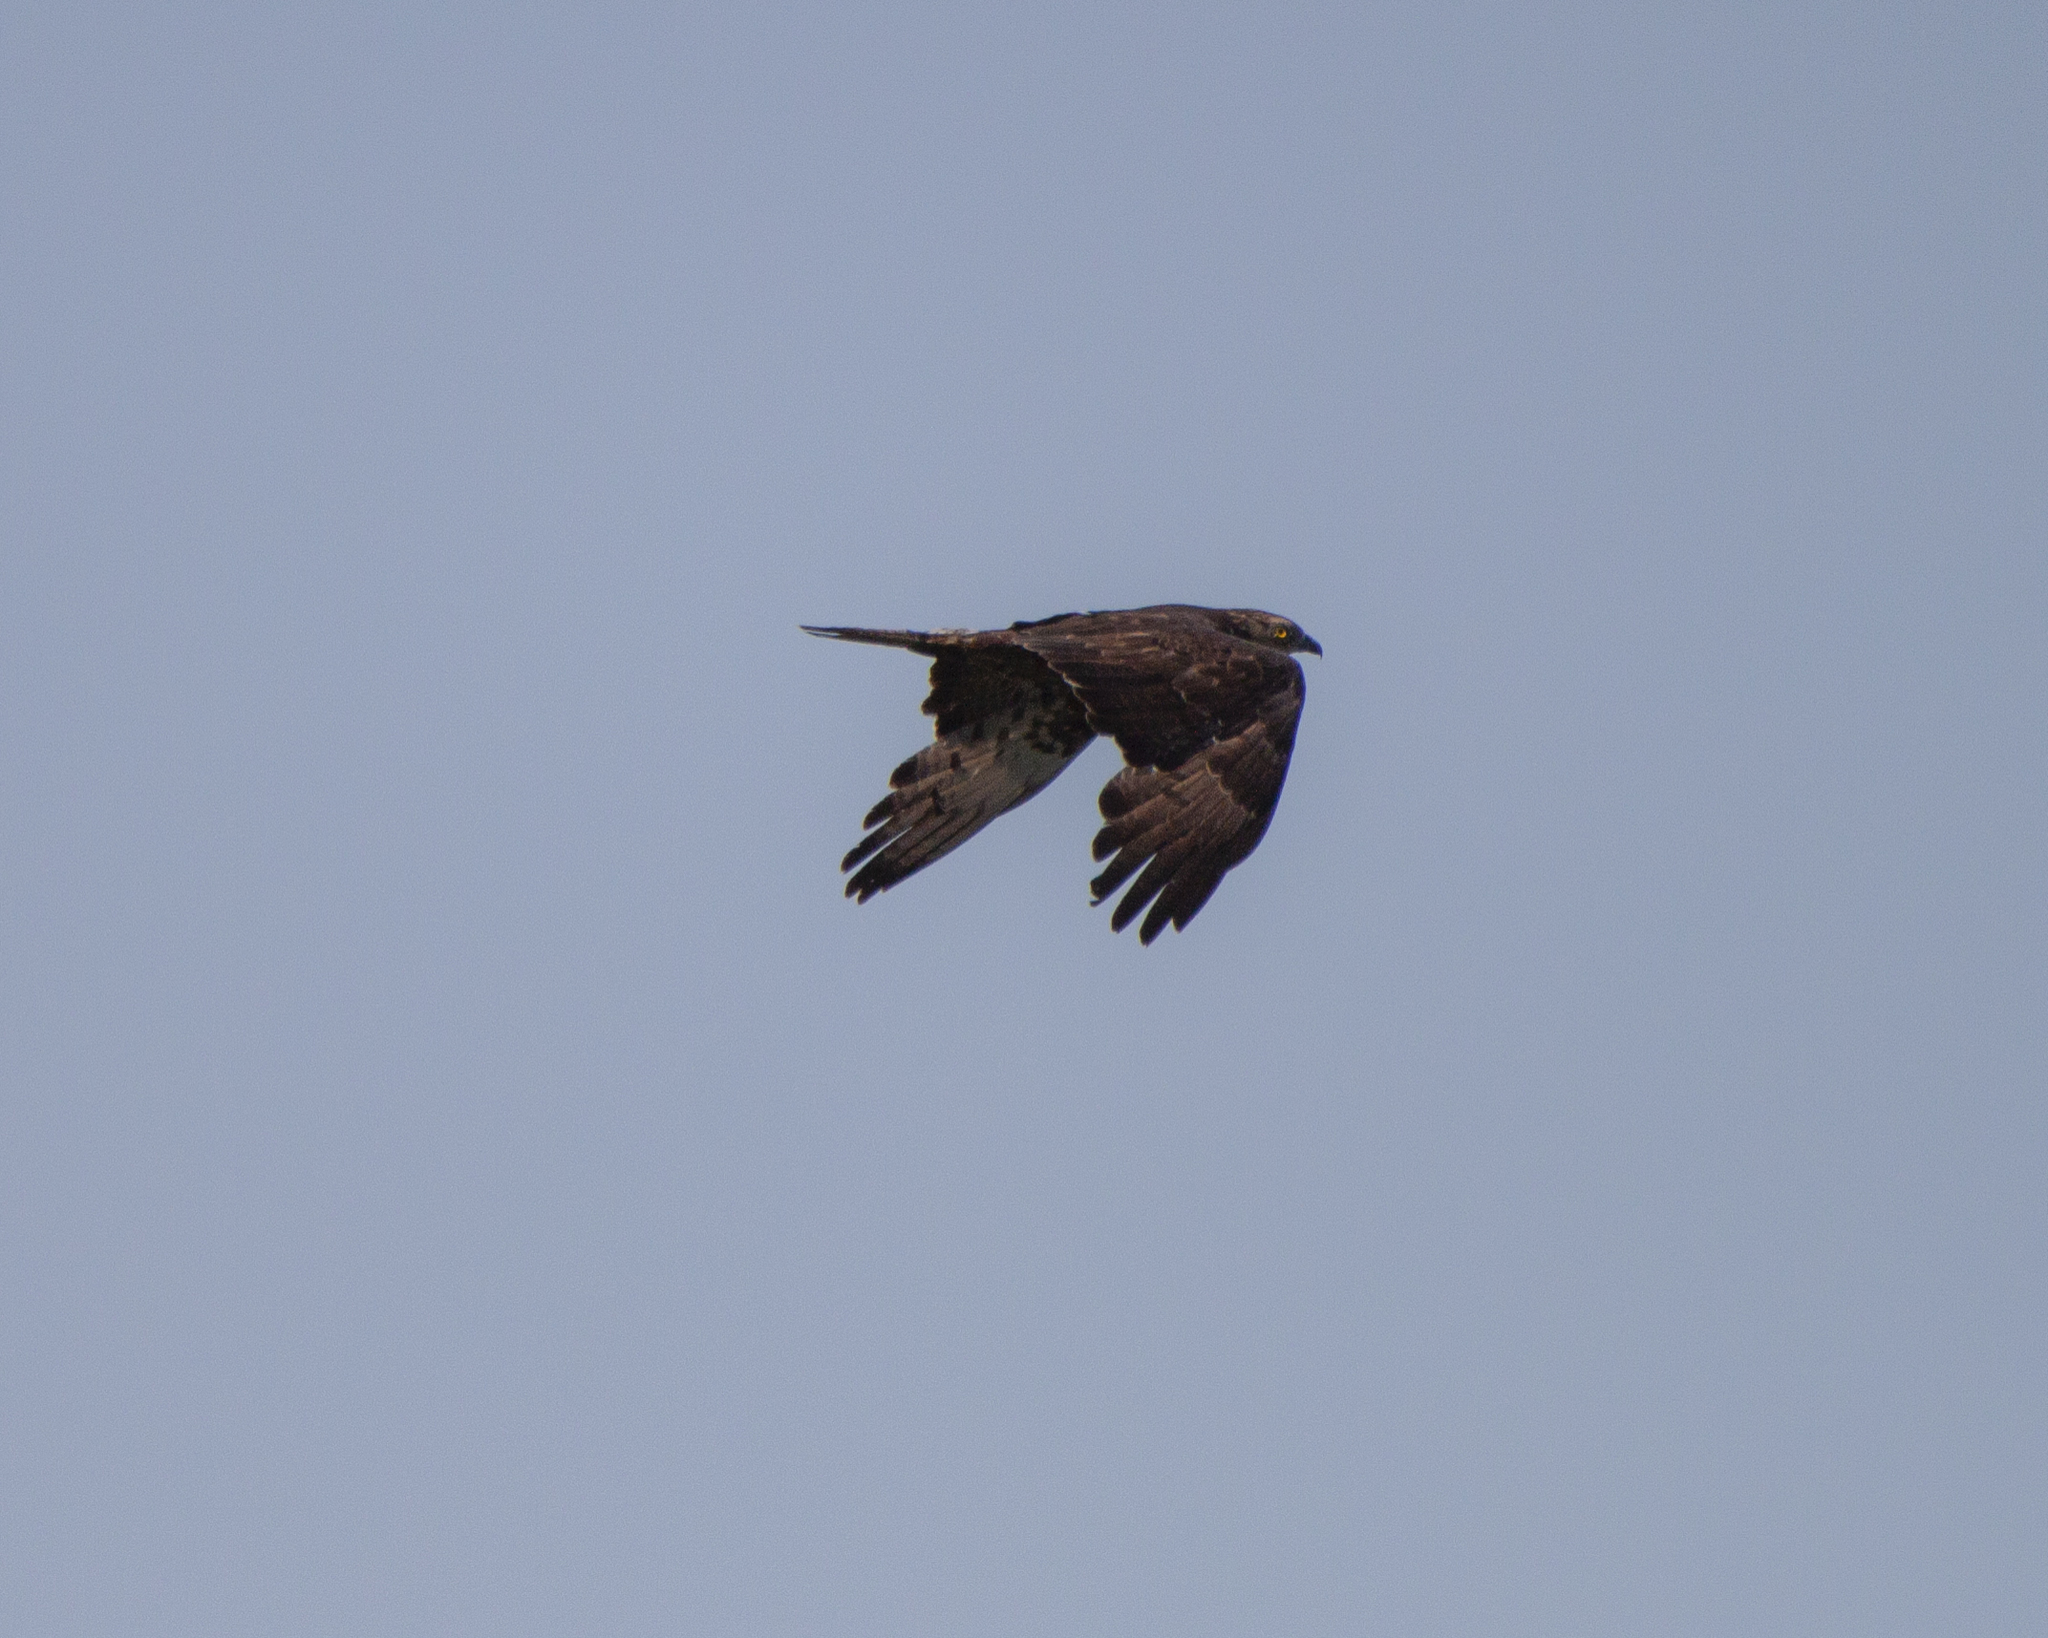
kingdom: Animalia
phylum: Chordata
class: Aves
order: Accipitriformes
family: Accipitridae
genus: Pernis
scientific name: Pernis apivorus
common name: European honey buzzard
